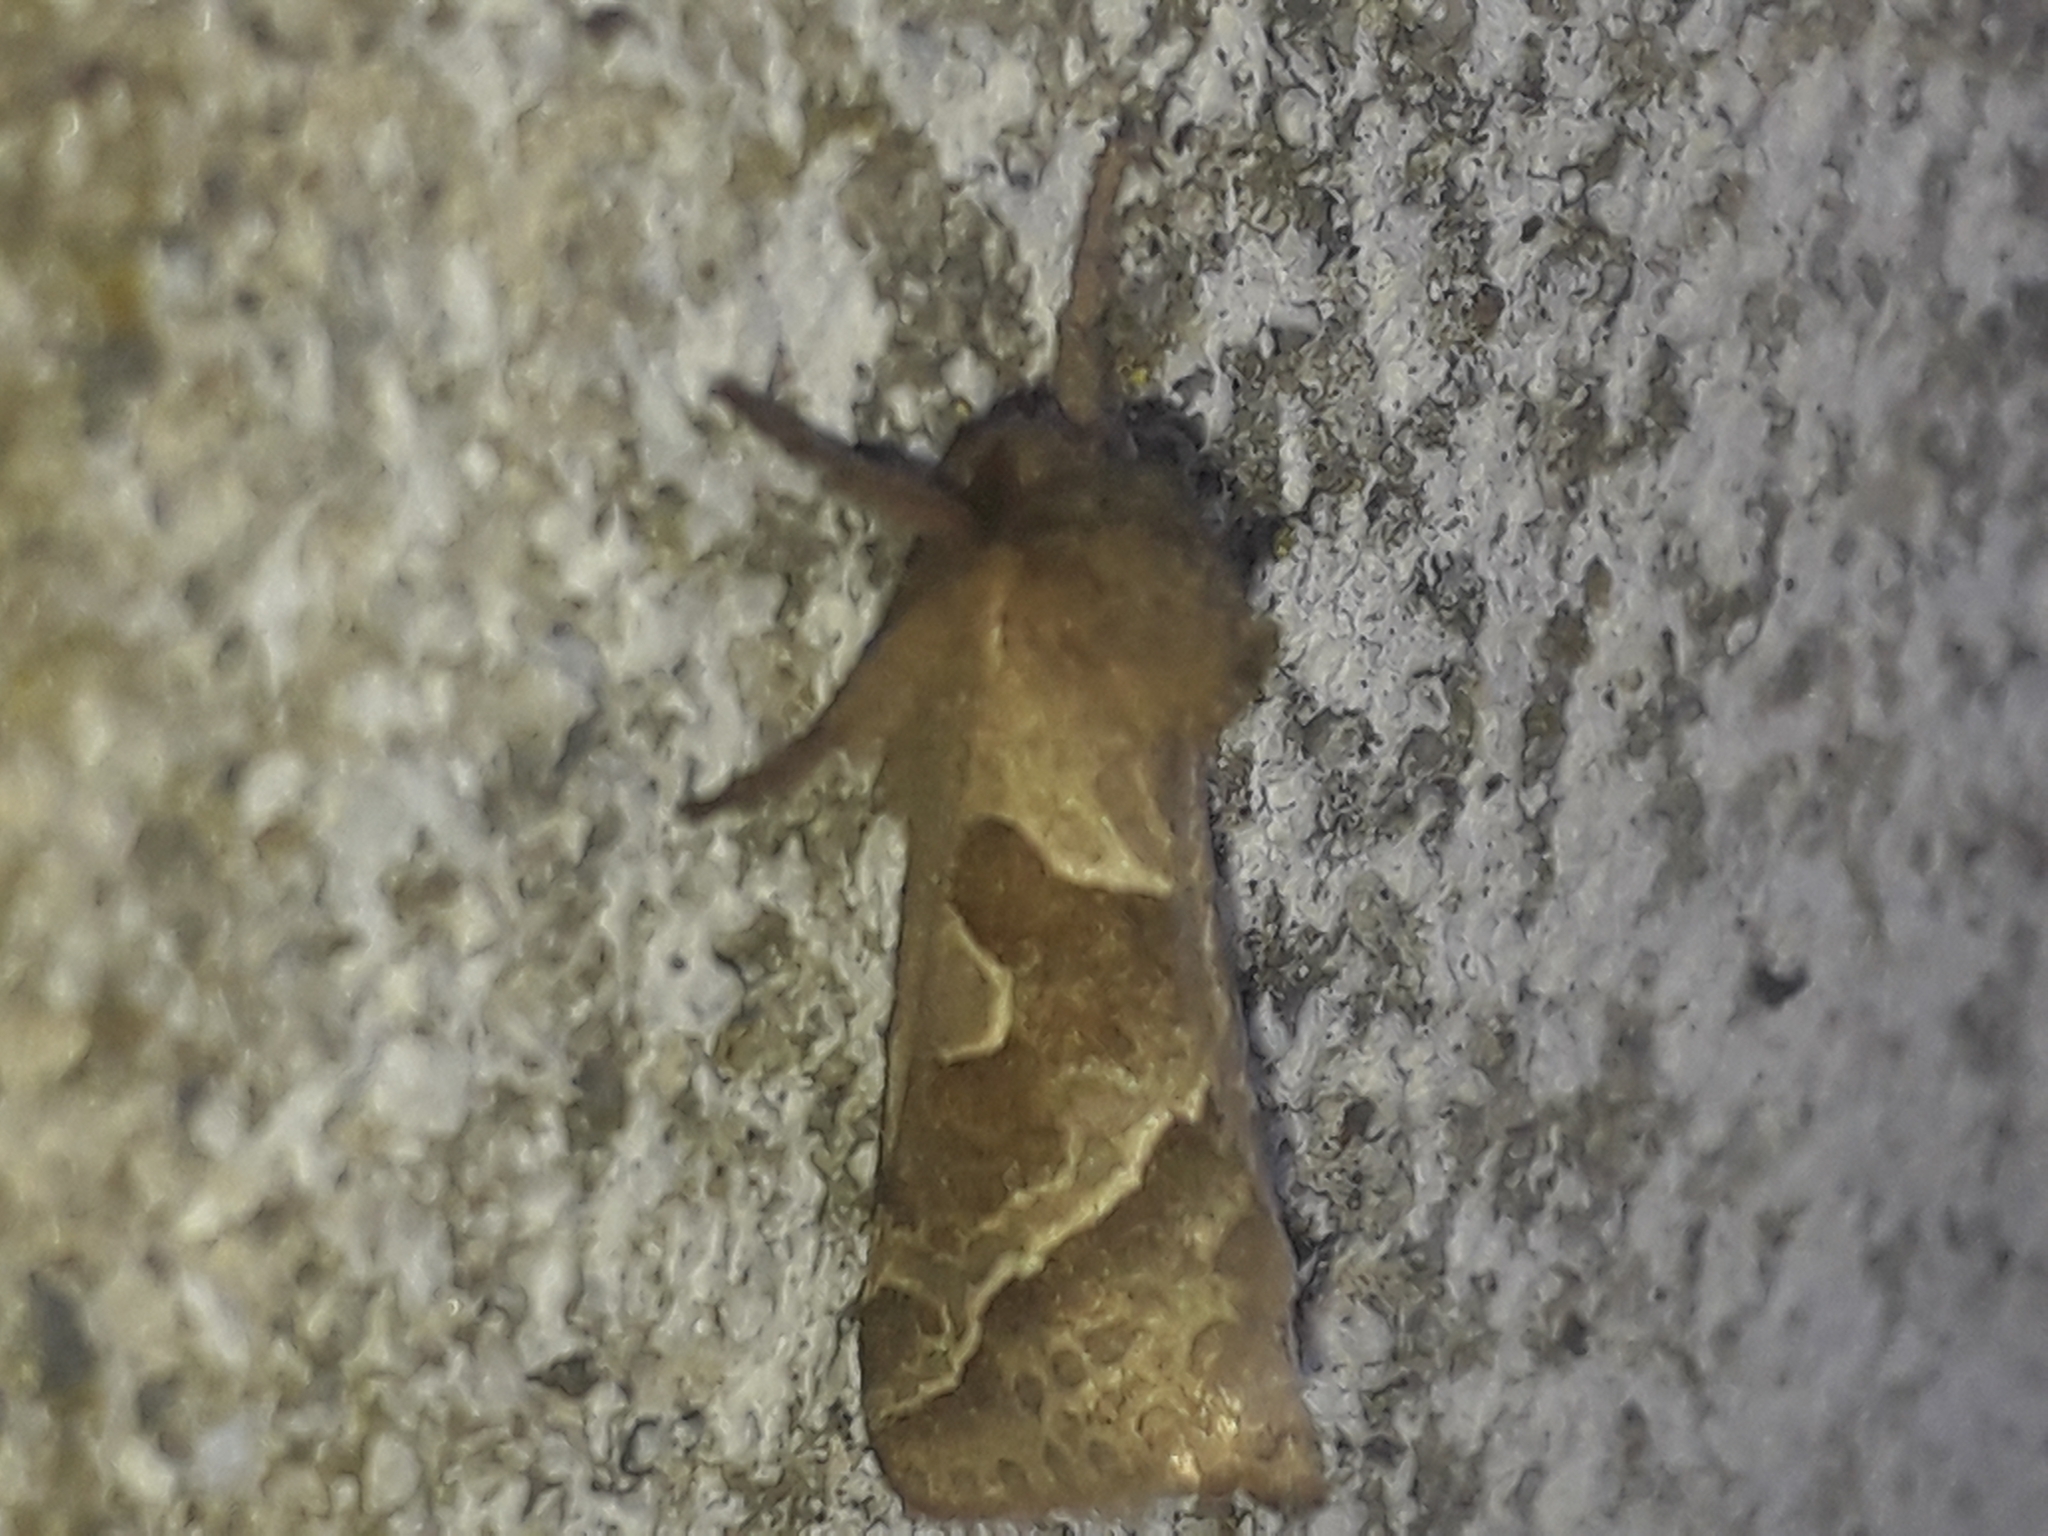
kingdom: Animalia
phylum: Arthropoda
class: Insecta
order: Lepidoptera
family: Hepialidae
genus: Triodia
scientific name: Triodia sylvina
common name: Orange swift
